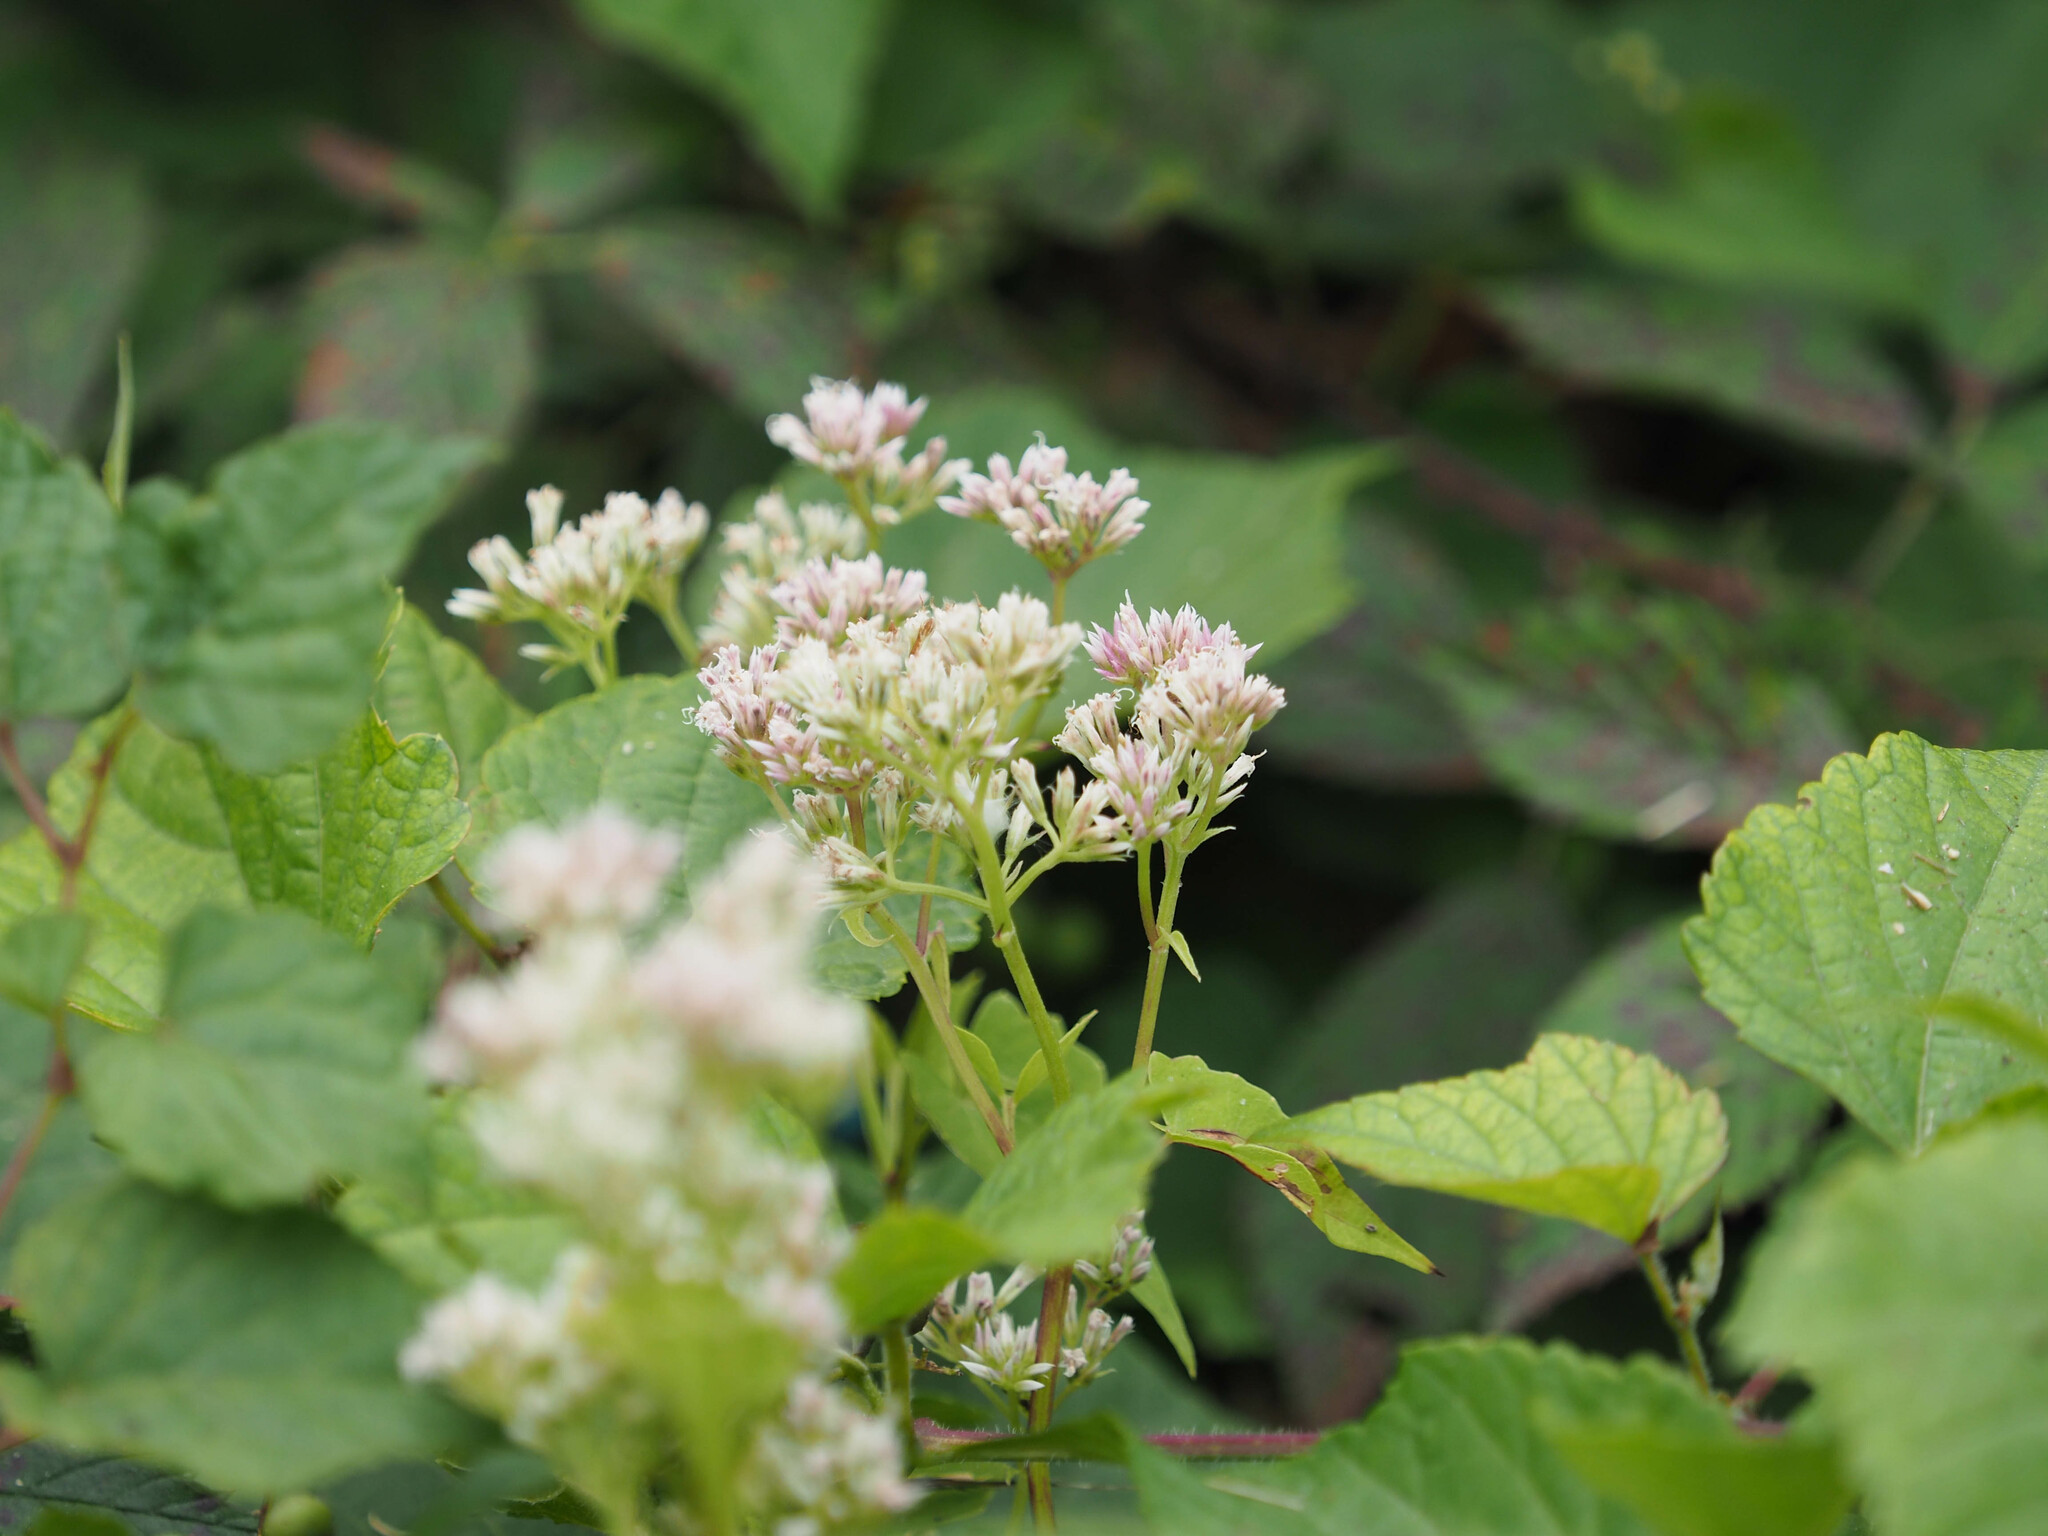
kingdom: Plantae
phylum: Tracheophyta
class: Magnoliopsida
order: Asterales
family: Asteraceae
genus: Mikania
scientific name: Mikania scandens
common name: Climbing hempvine
